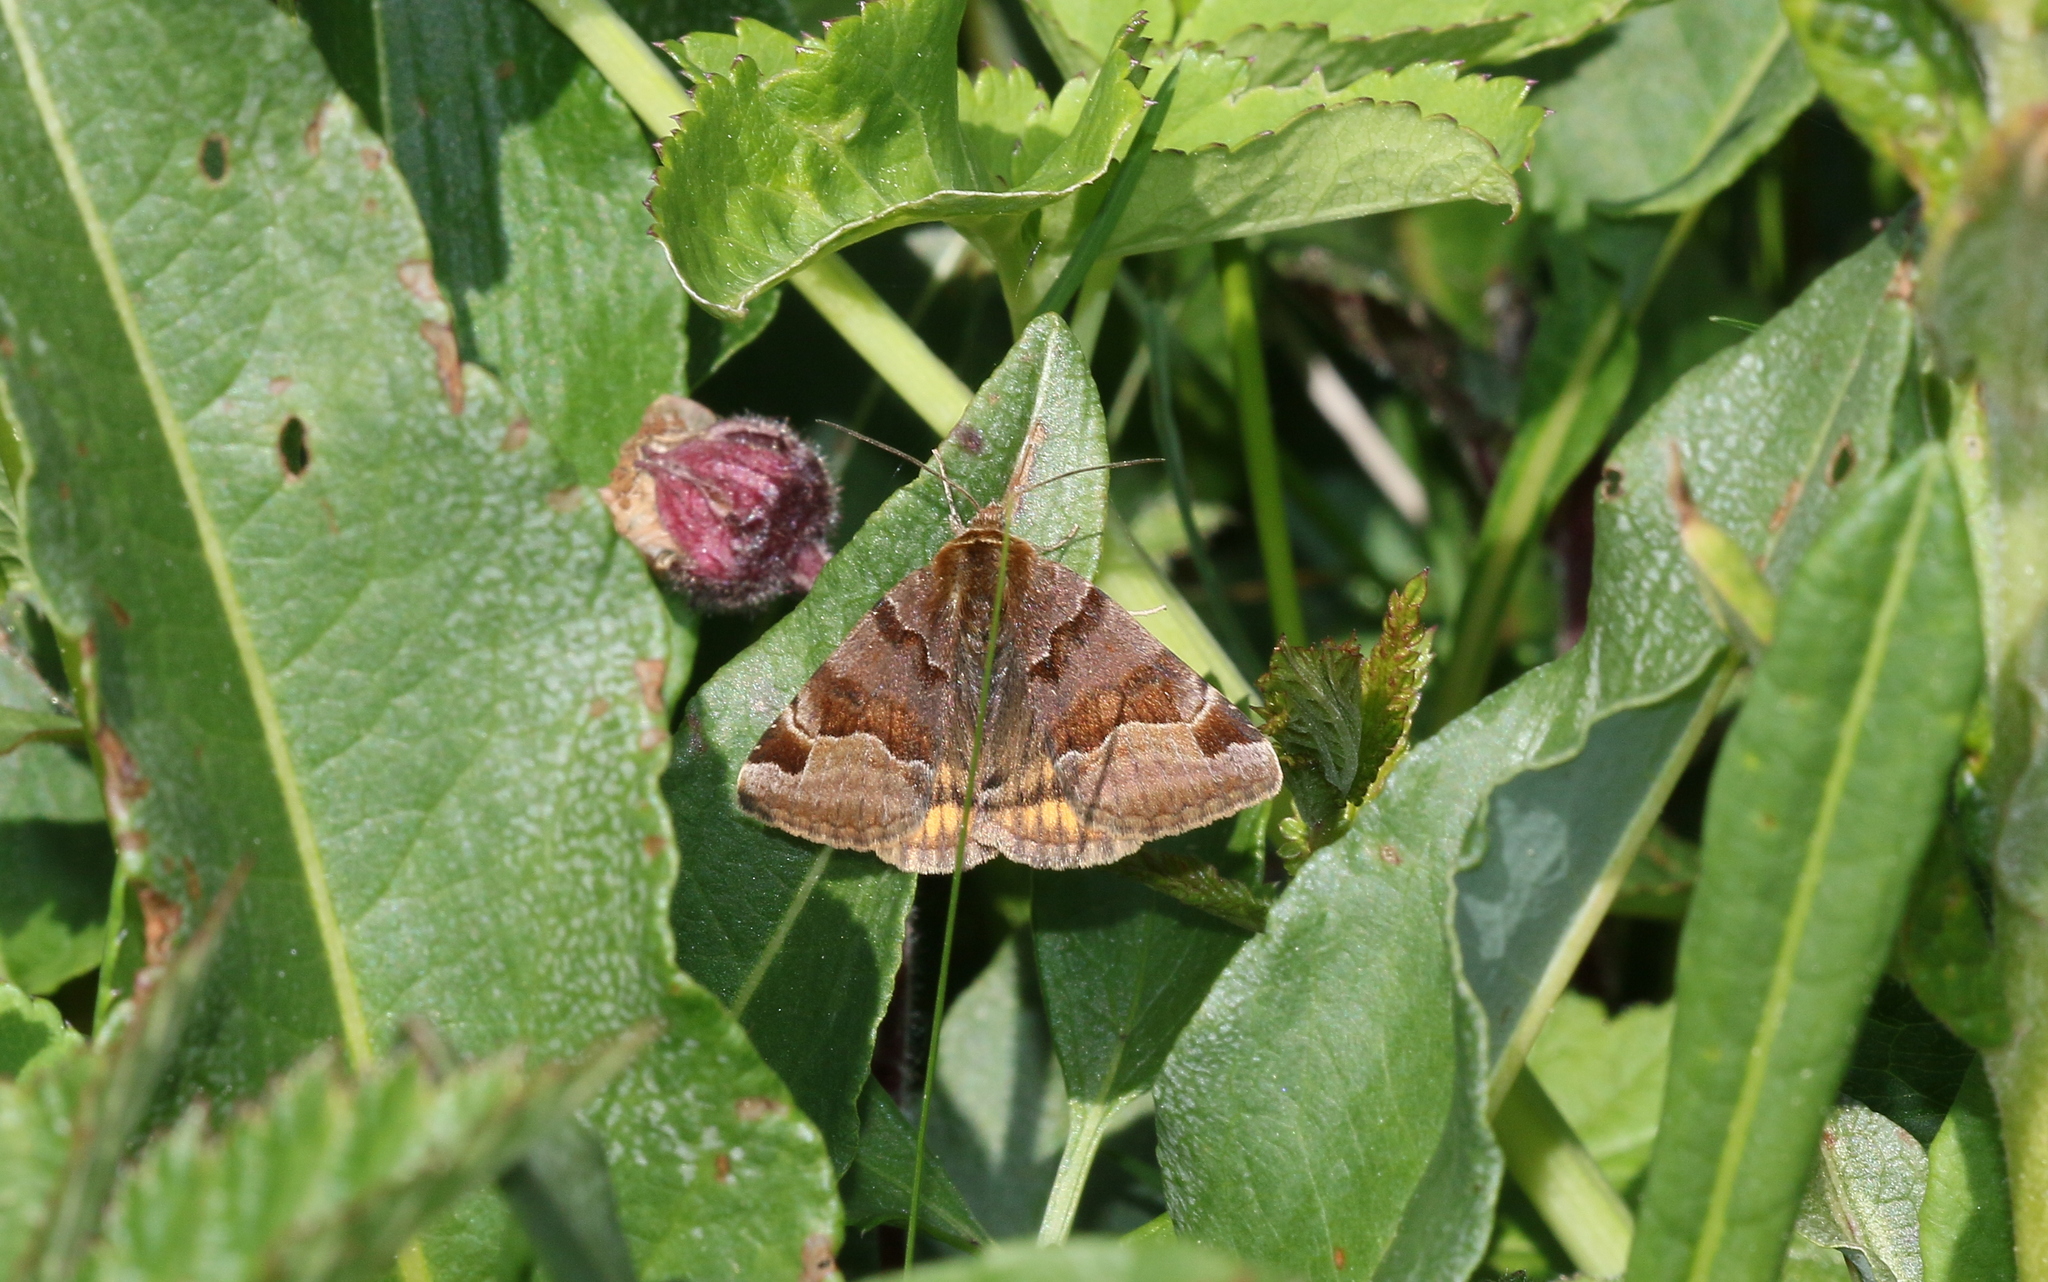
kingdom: Animalia
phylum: Arthropoda
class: Insecta
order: Lepidoptera
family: Erebidae
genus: Euclidia
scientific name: Euclidia glyphica
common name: Burnet companion
